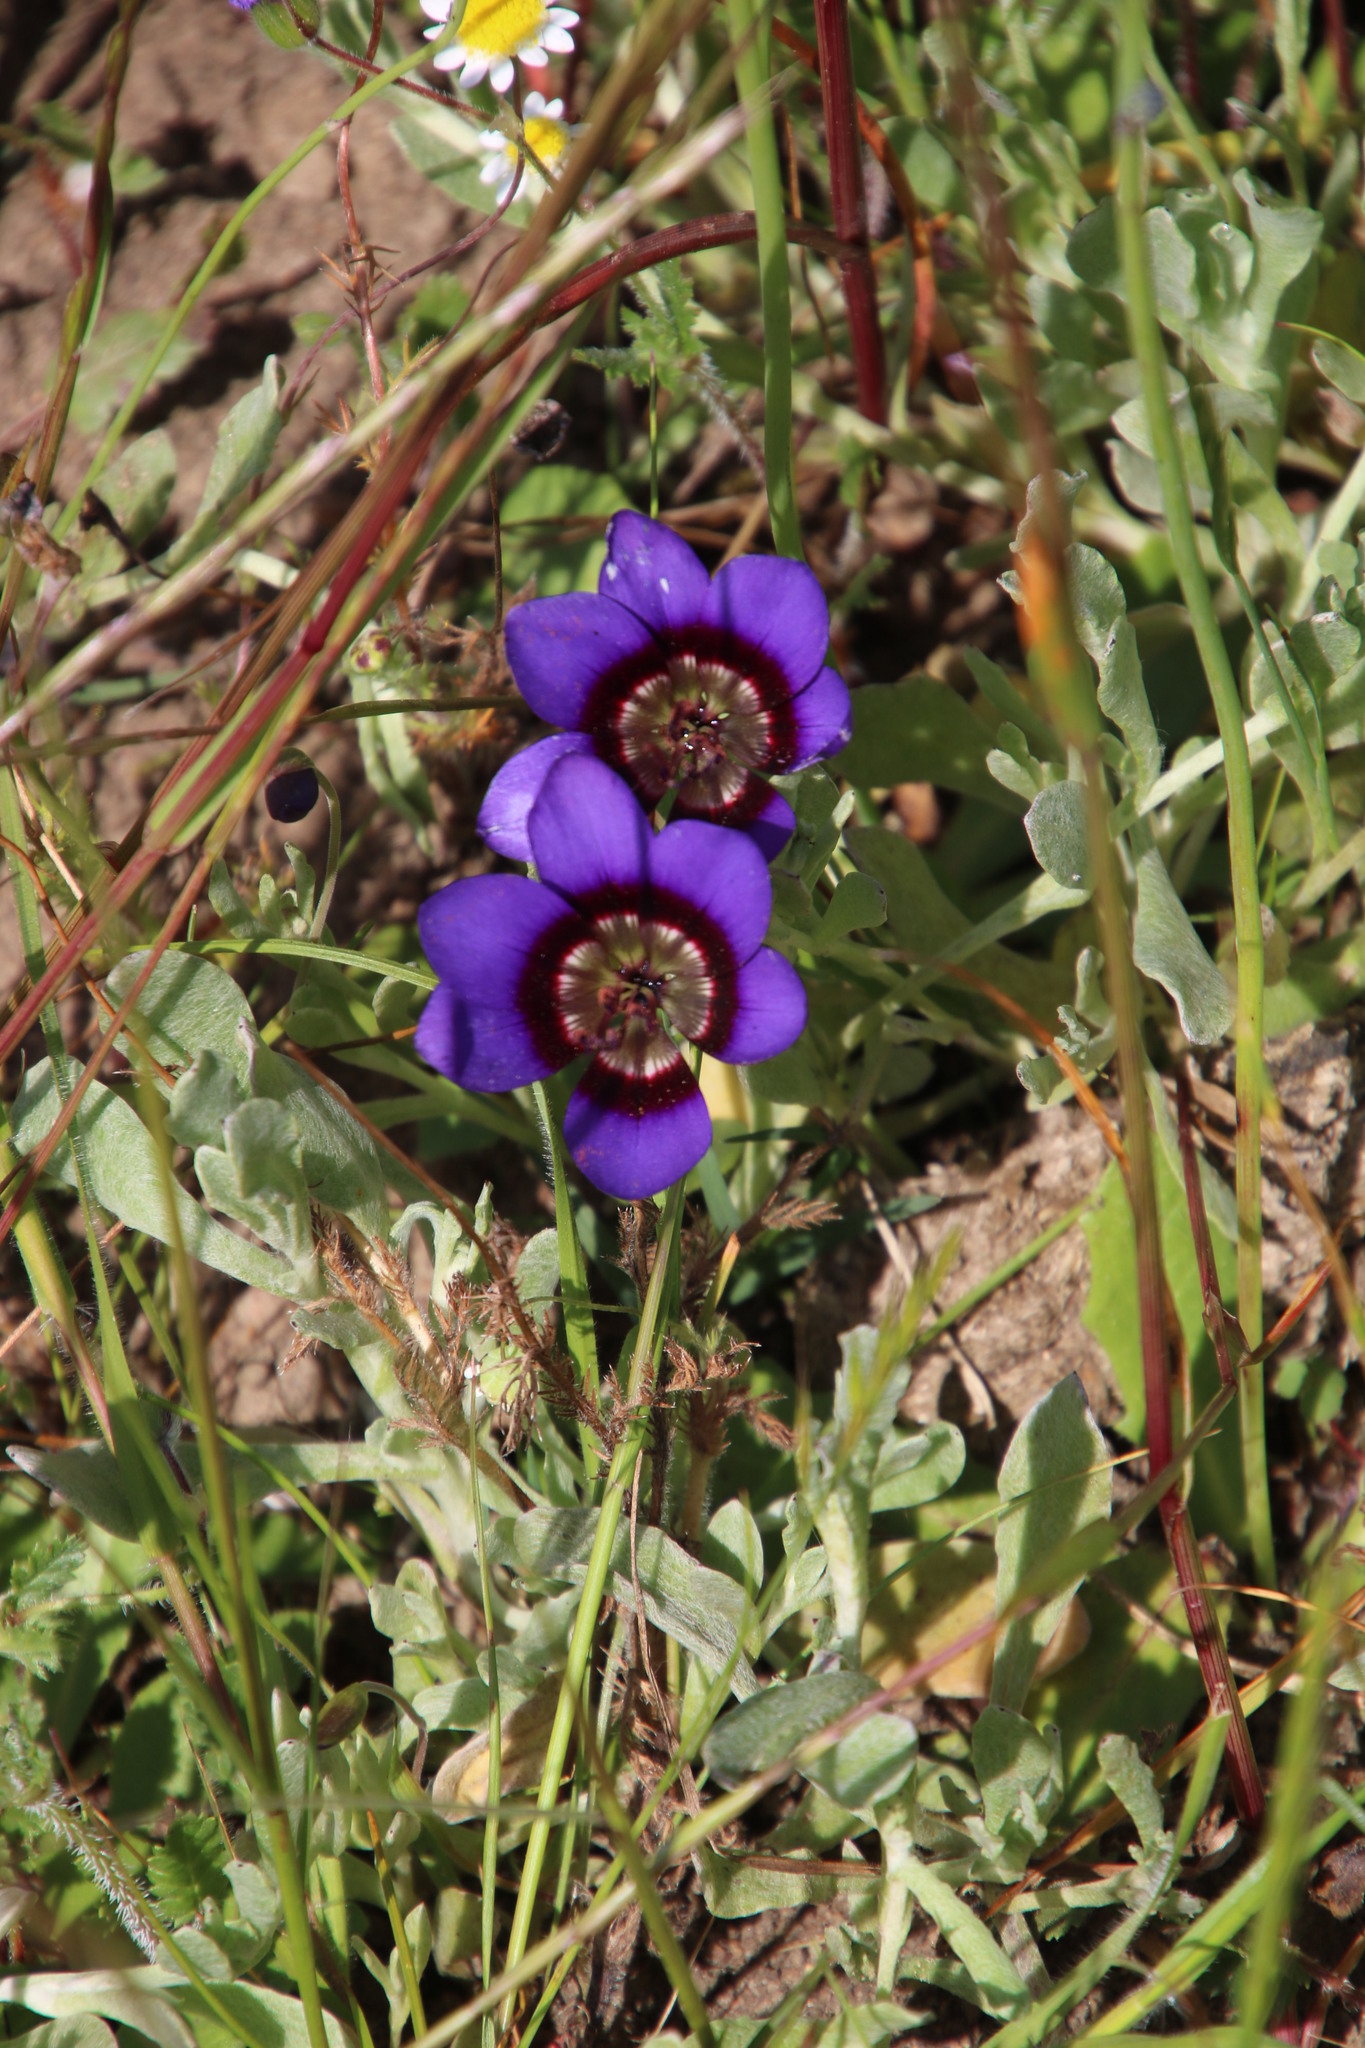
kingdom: Plantae
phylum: Tracheophyta
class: Liliopsida
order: Asparagales
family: Iridaceae
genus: Geissorhiza
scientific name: Geissorhiza monanthos
